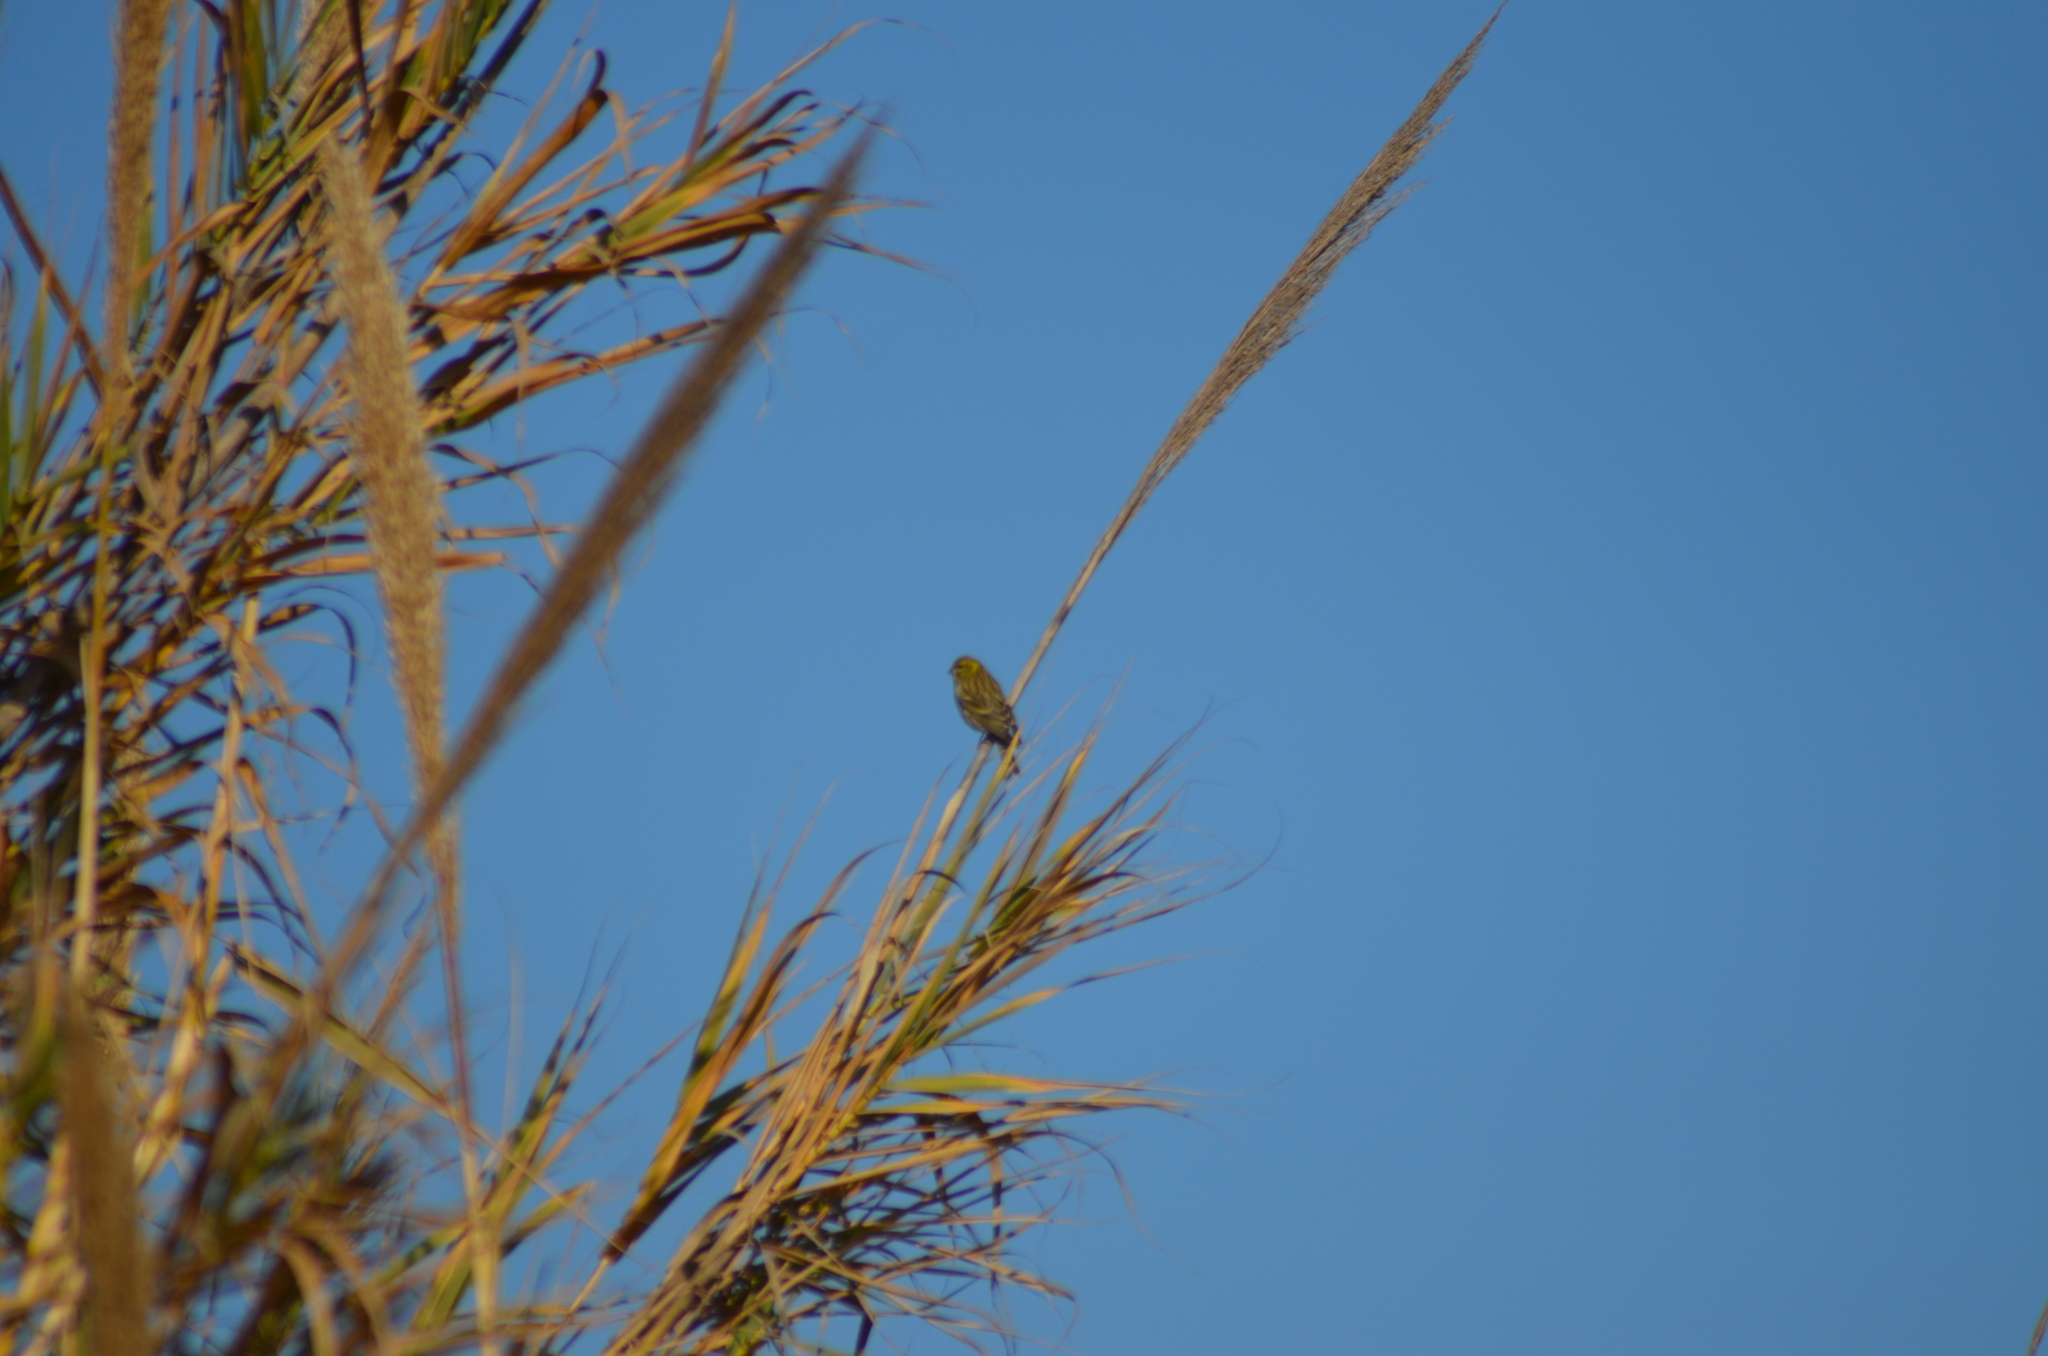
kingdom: Animalia
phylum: Chordata
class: Aves
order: Passeriformes
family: Fringillidae
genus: Serinus
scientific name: Serinus serinus
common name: European serin
